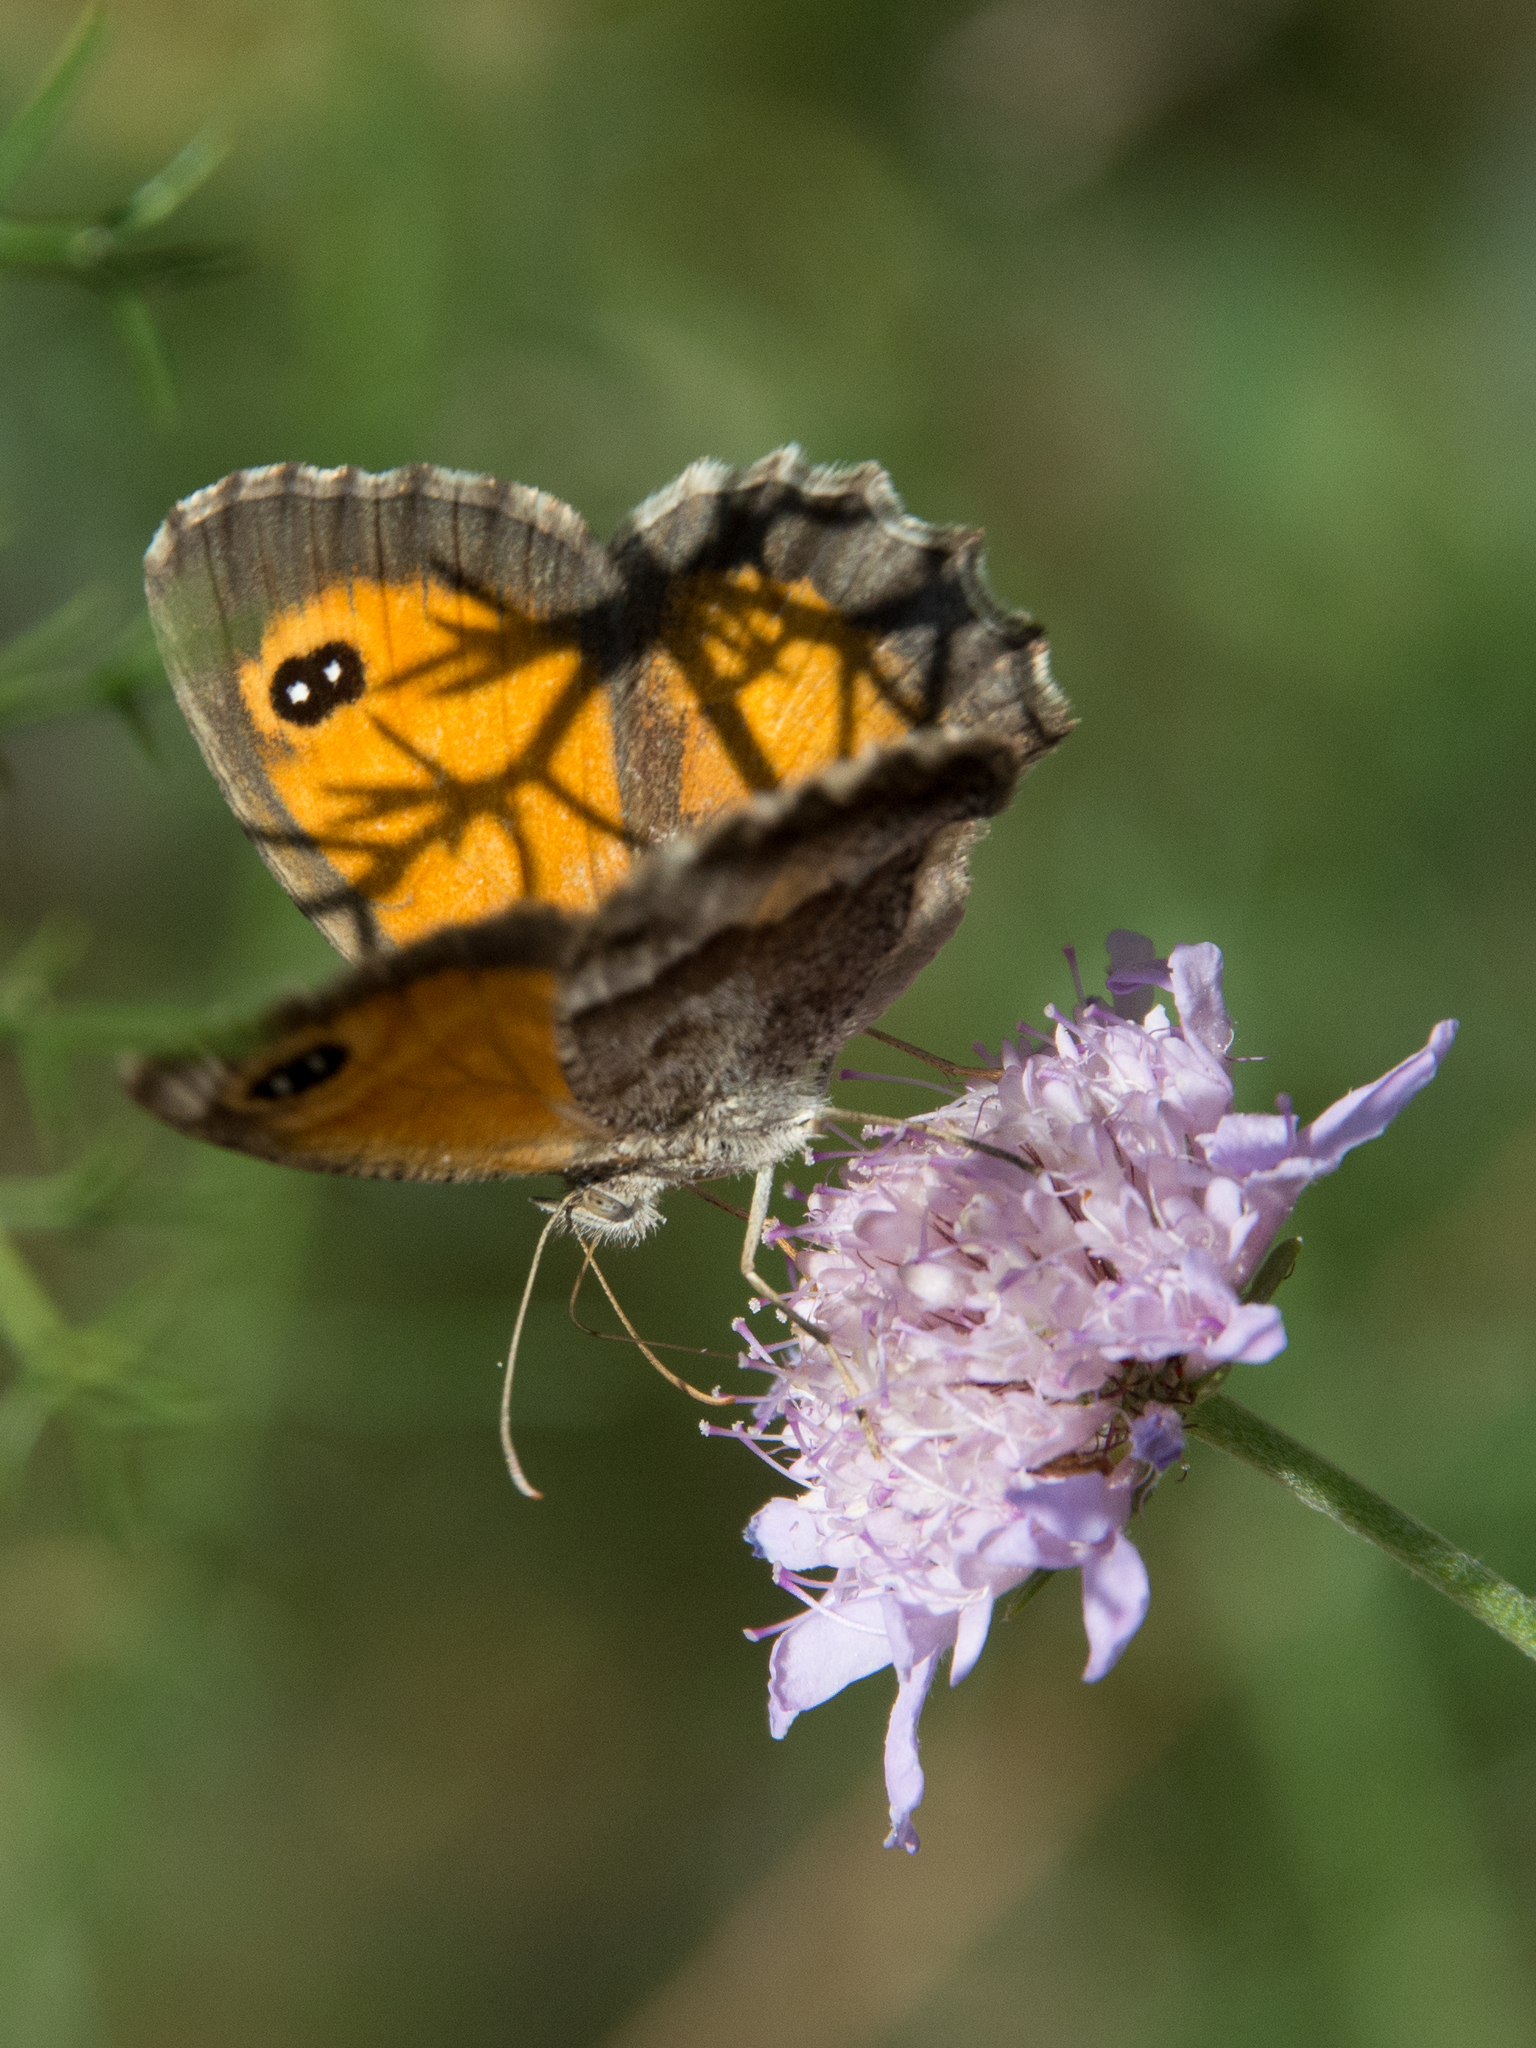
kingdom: Animalia
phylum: Arthropoda
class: Insecta
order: Lepidoptera
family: Nymphalidae
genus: Pyronia
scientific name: Pyronia cecilia
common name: Southern gatekeeper
